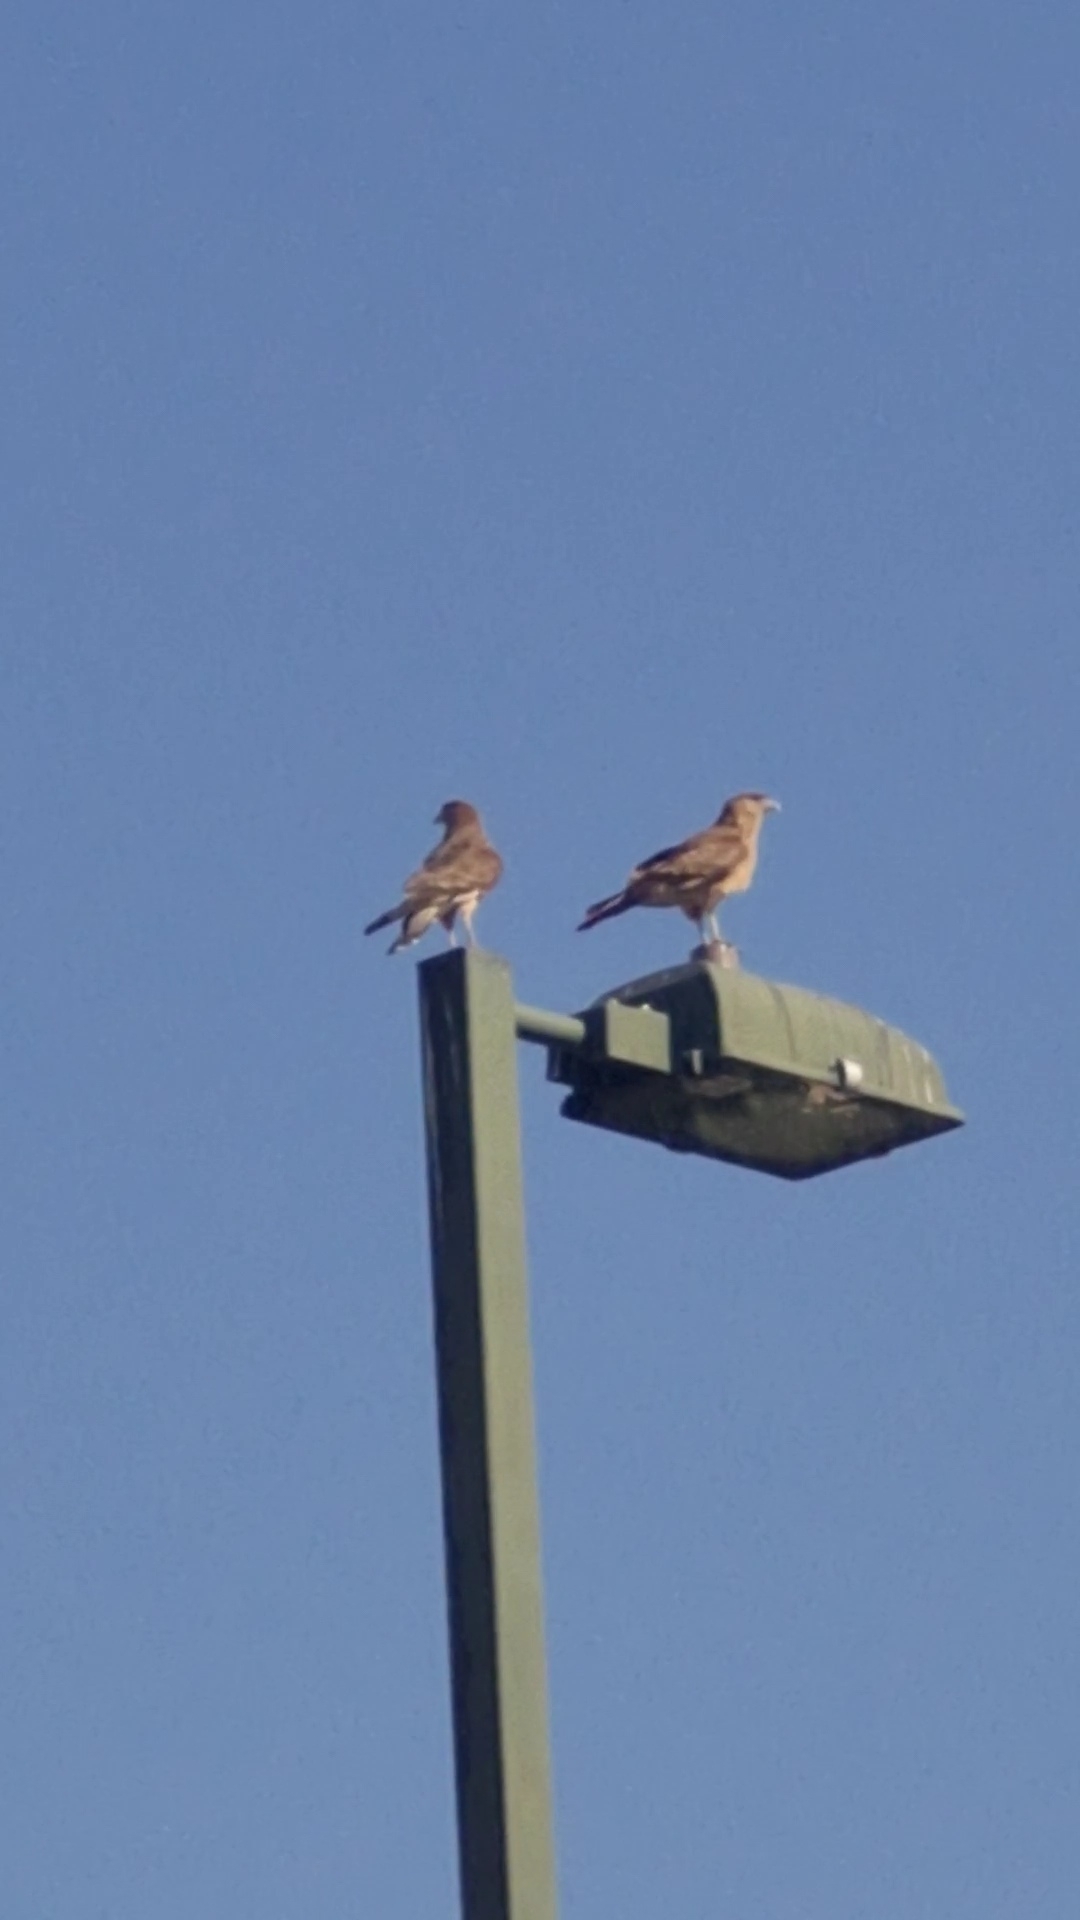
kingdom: Animalia
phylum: Chordata
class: Aves
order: Falconiformes
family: Falconidae
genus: Daptrius
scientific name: Daptrius
